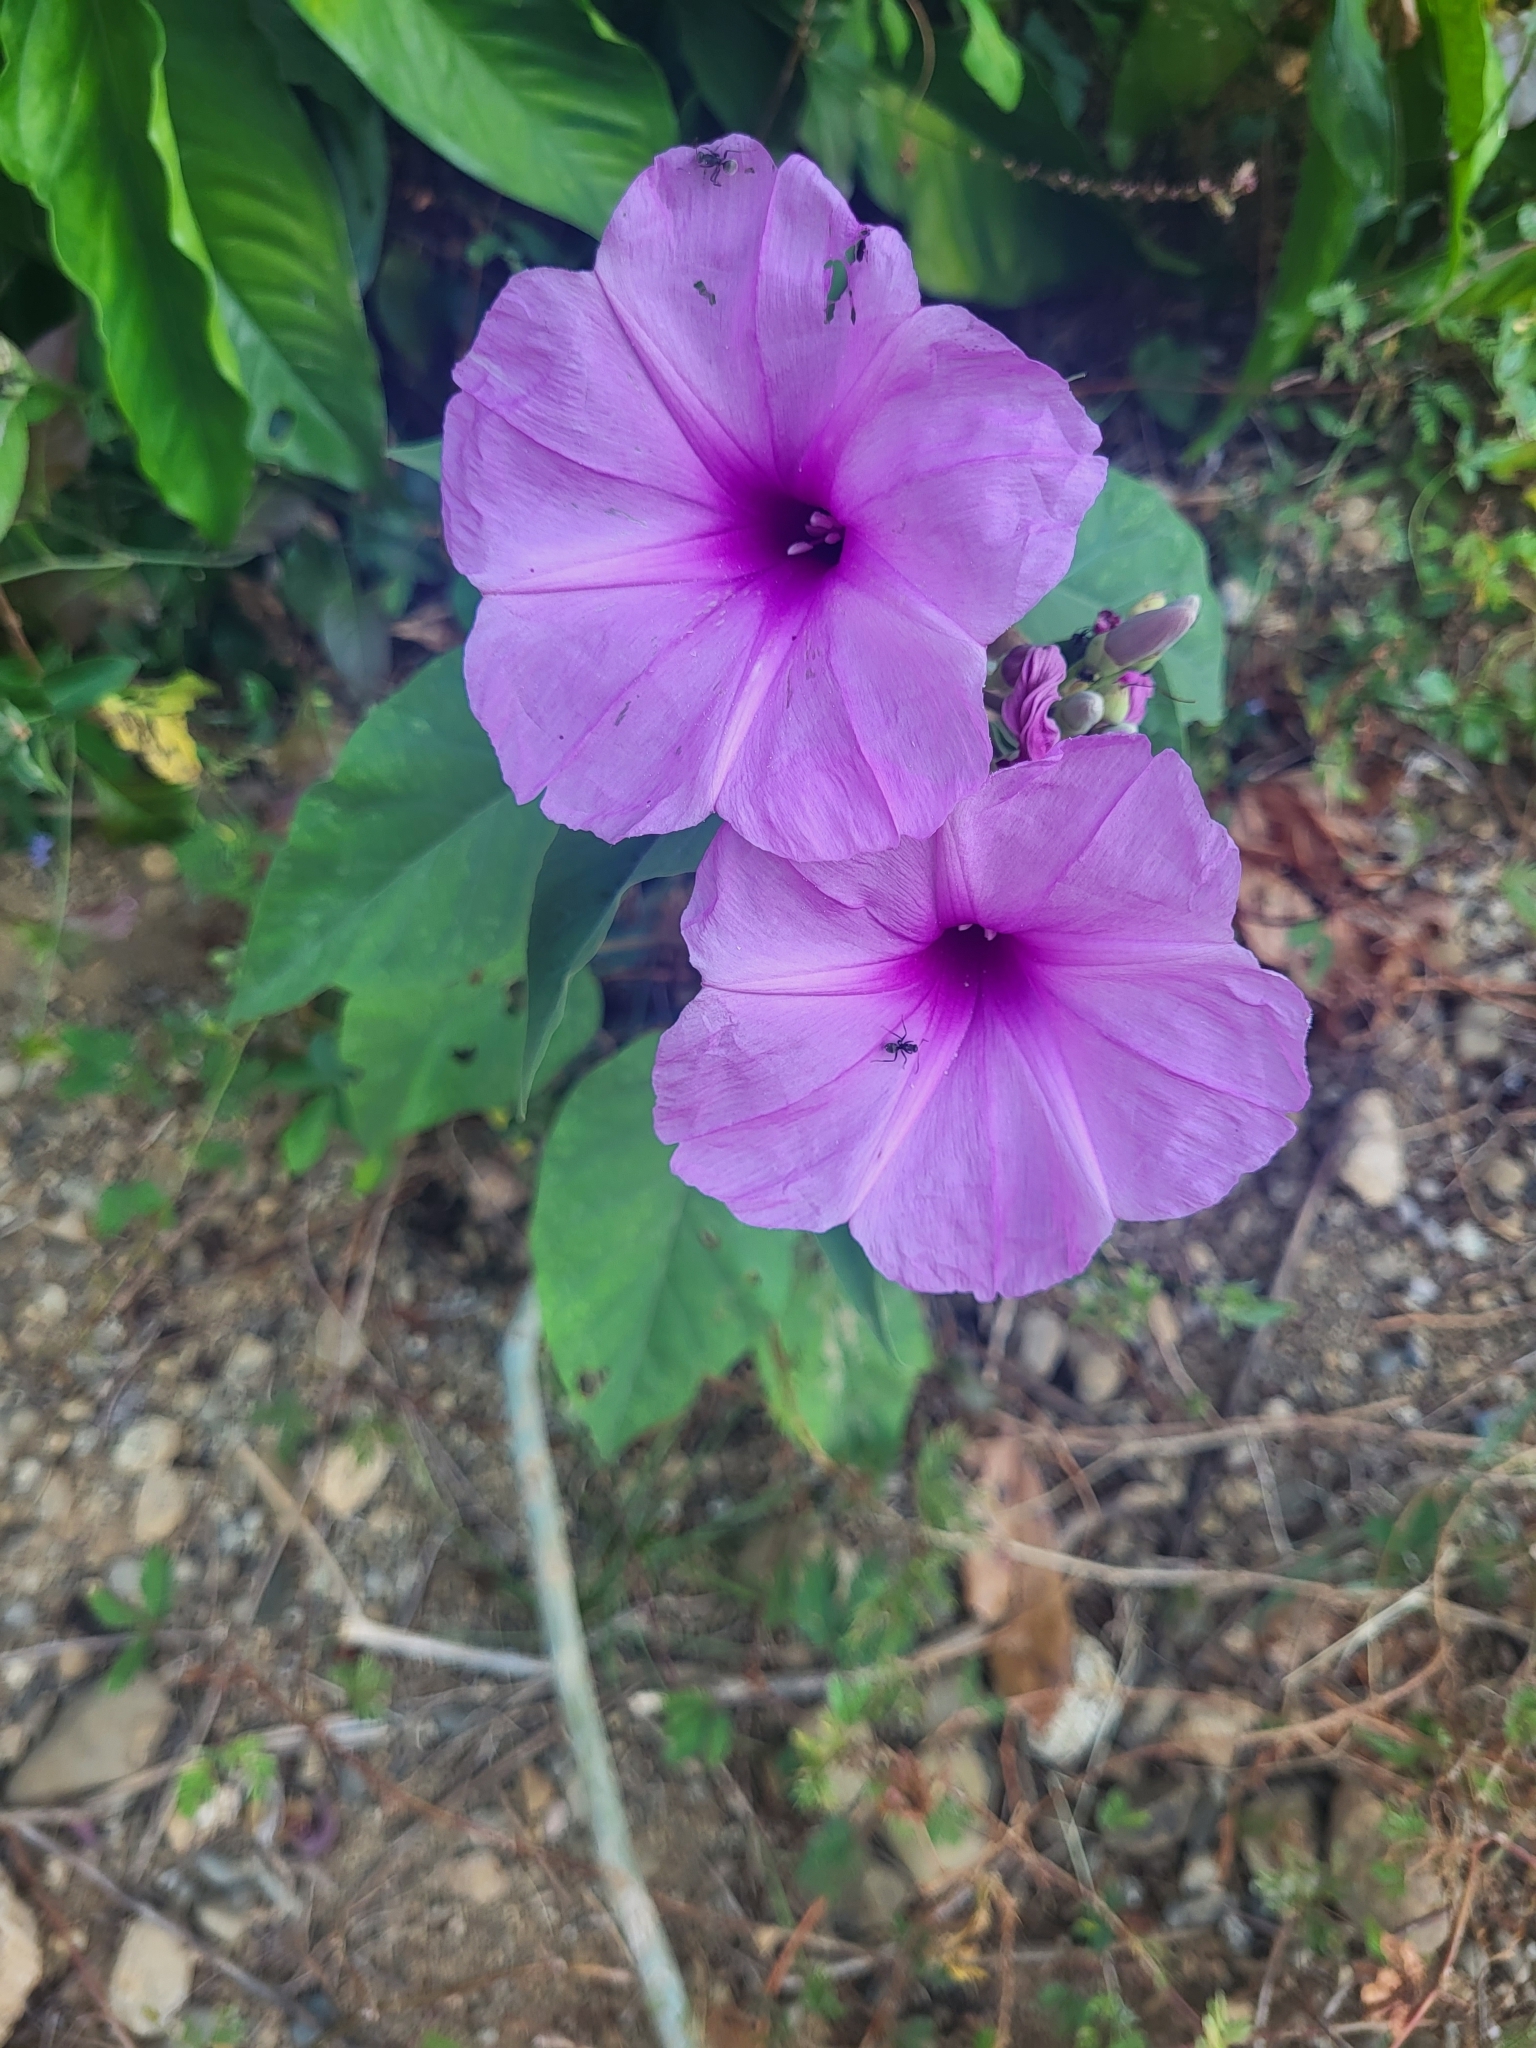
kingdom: Plantae
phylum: Tracheophyta
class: Magnoliopsida
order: Solanales
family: Convolvulaceae
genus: Ipomoea
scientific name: Ipomoea carnea
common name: Morning-glory
